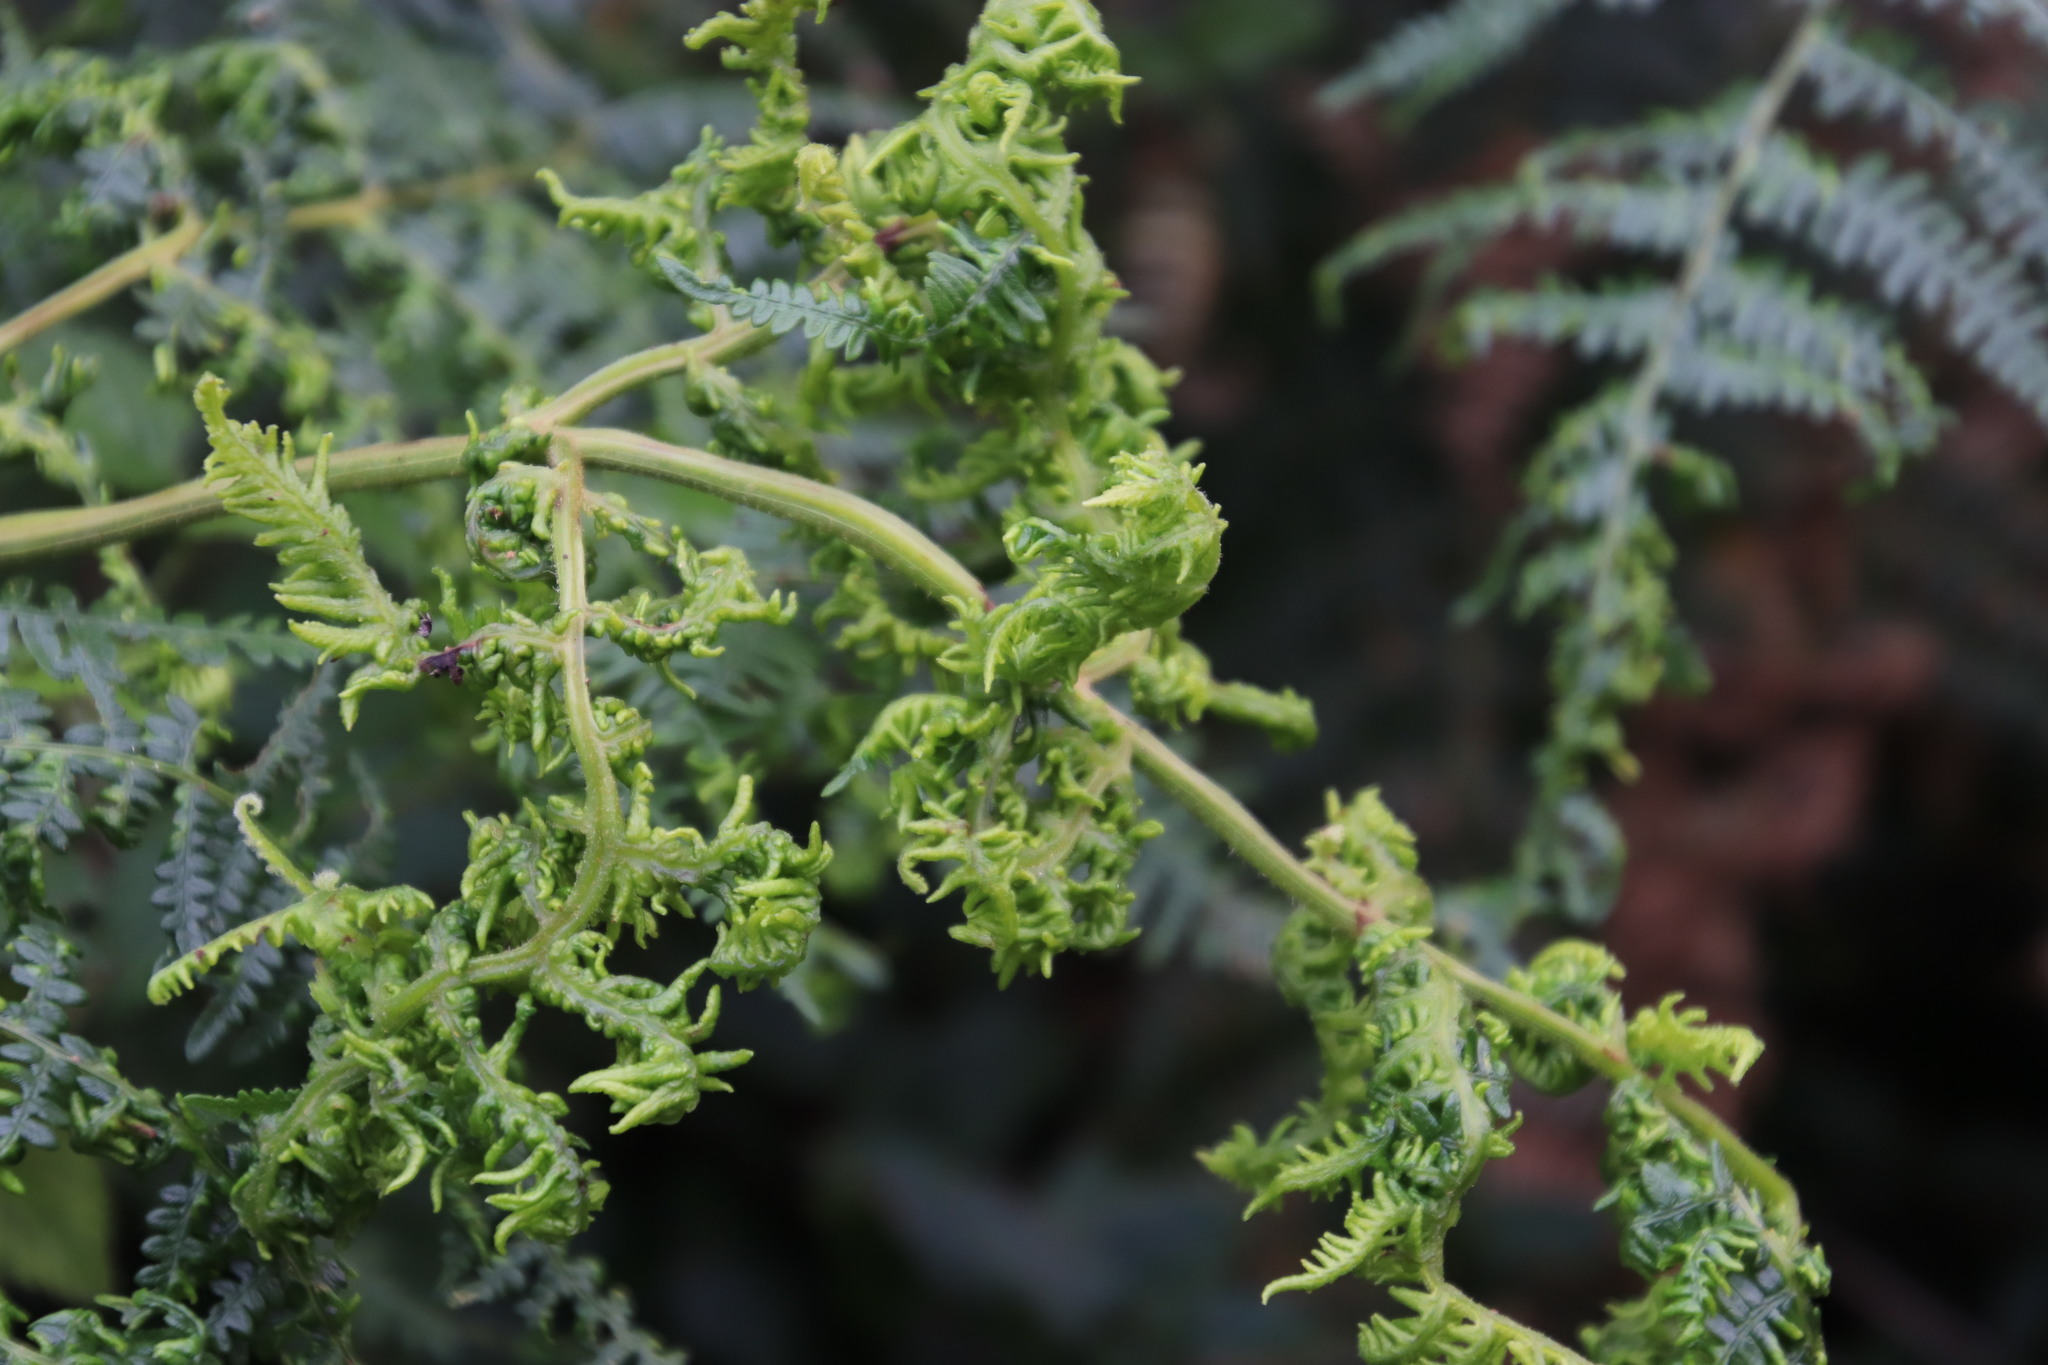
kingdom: Plantae
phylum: Tracheophyta
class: Polypodiopsida
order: Polypodiales
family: Dennstaedtiaceae
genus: Pteridium
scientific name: Pteridium aquilinum
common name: Bracken
